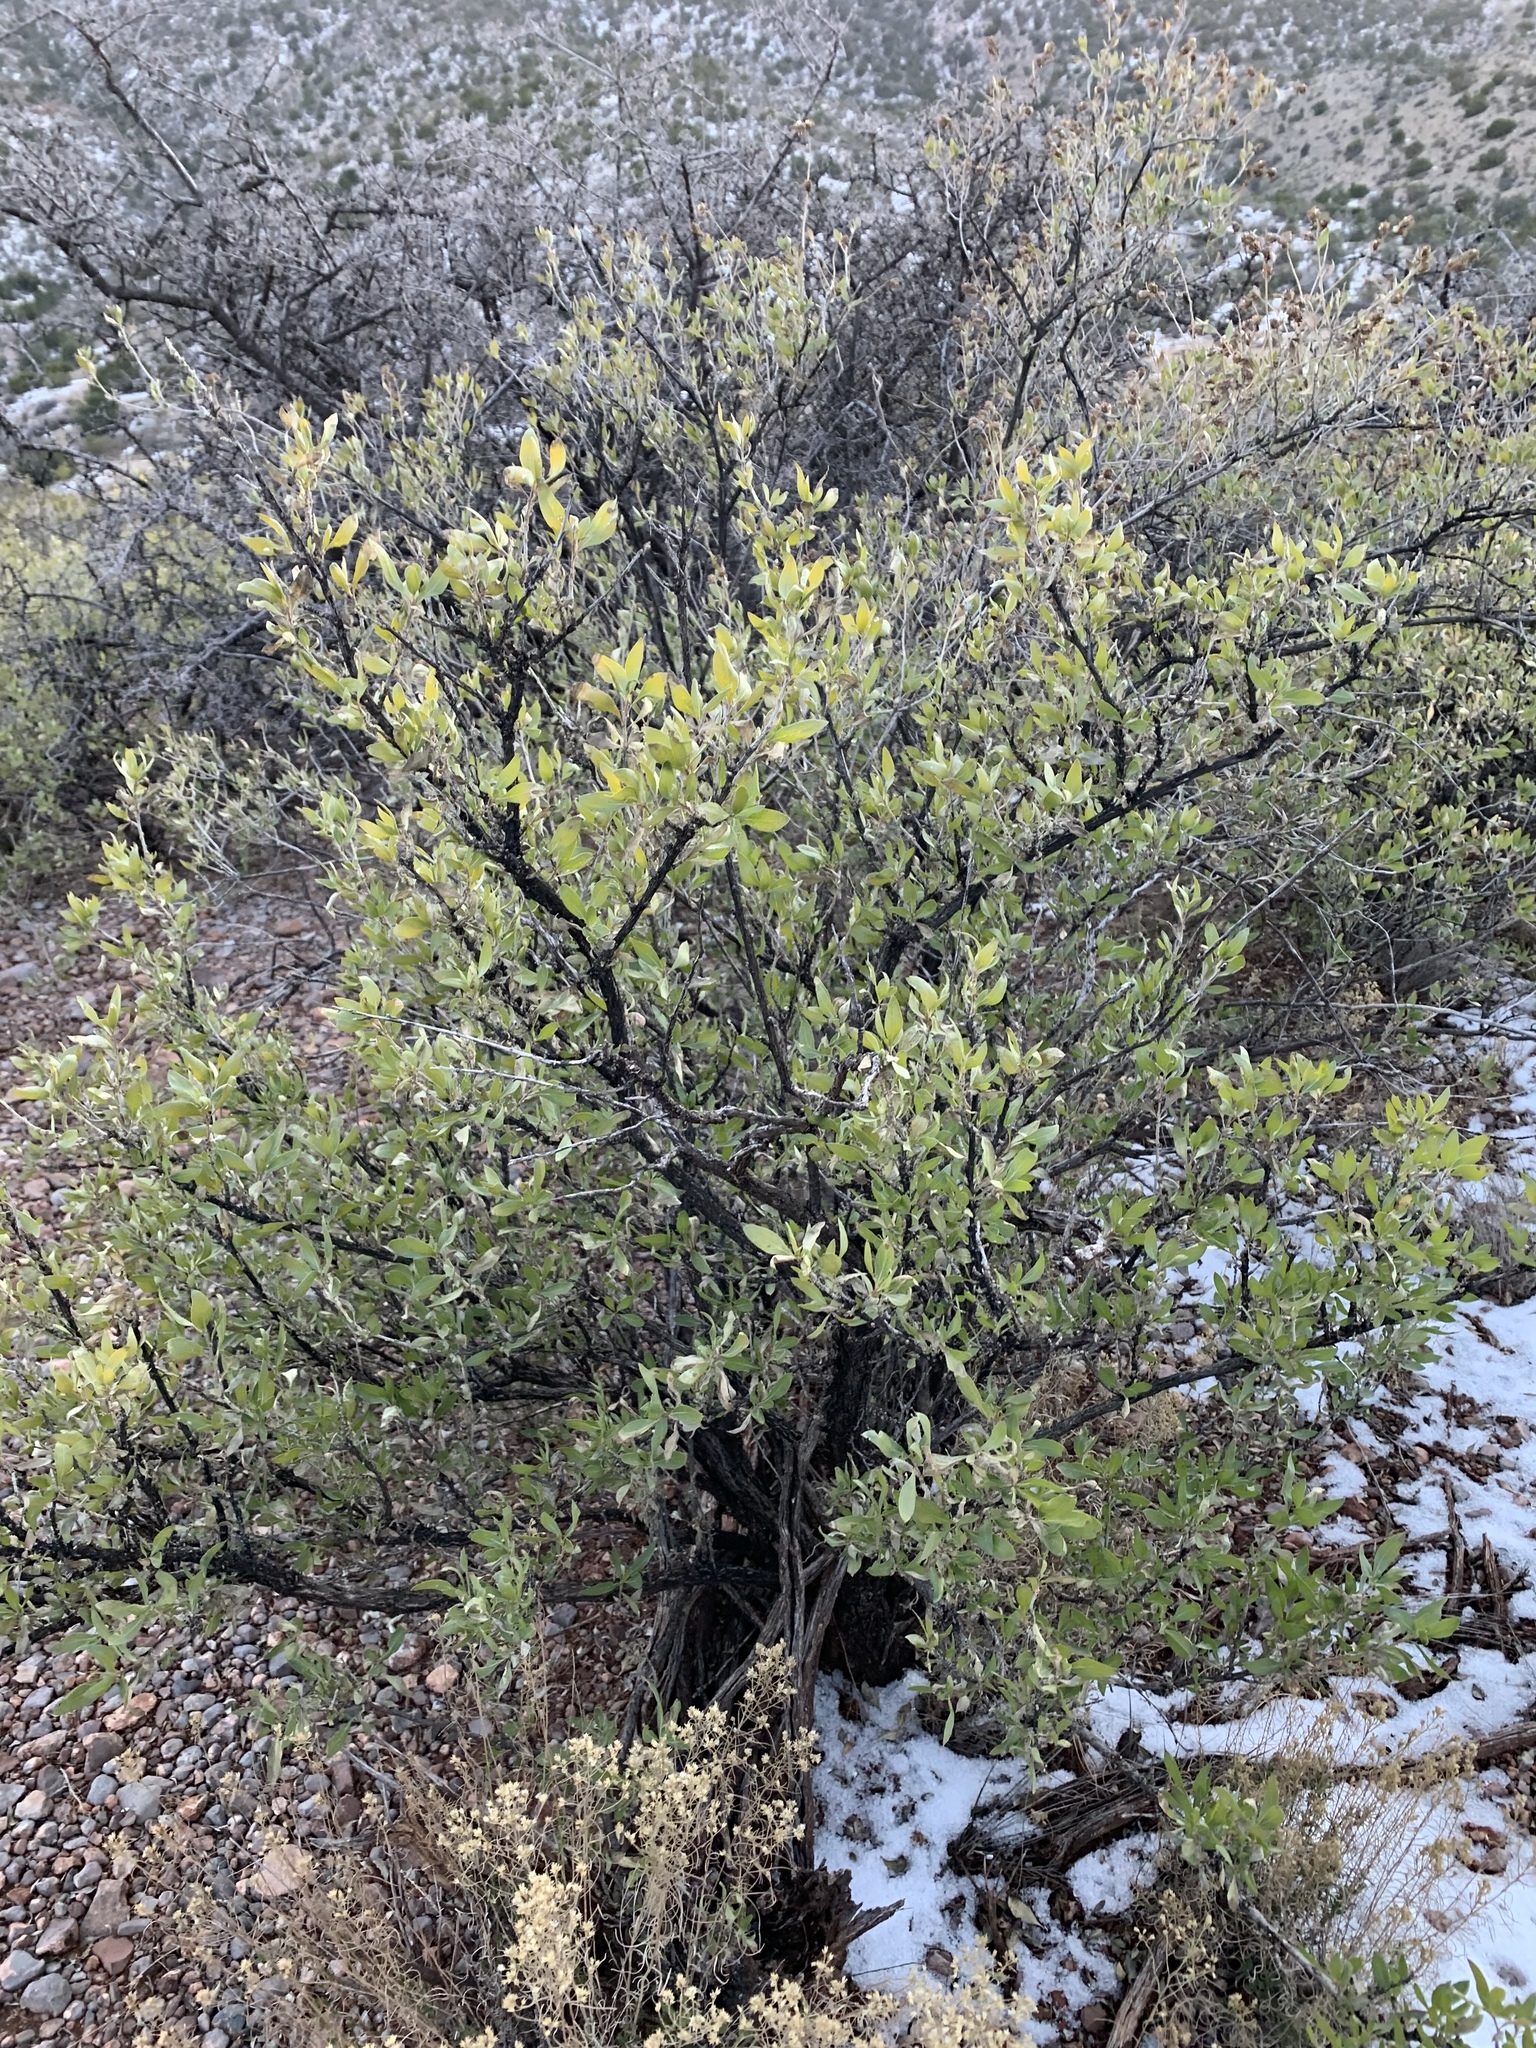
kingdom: Plantae
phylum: Tracheophyta
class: Magnoliopsida
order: Asterales
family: Asteraceae
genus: Flourensia
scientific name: Flourensia cernua
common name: Varnishbush
